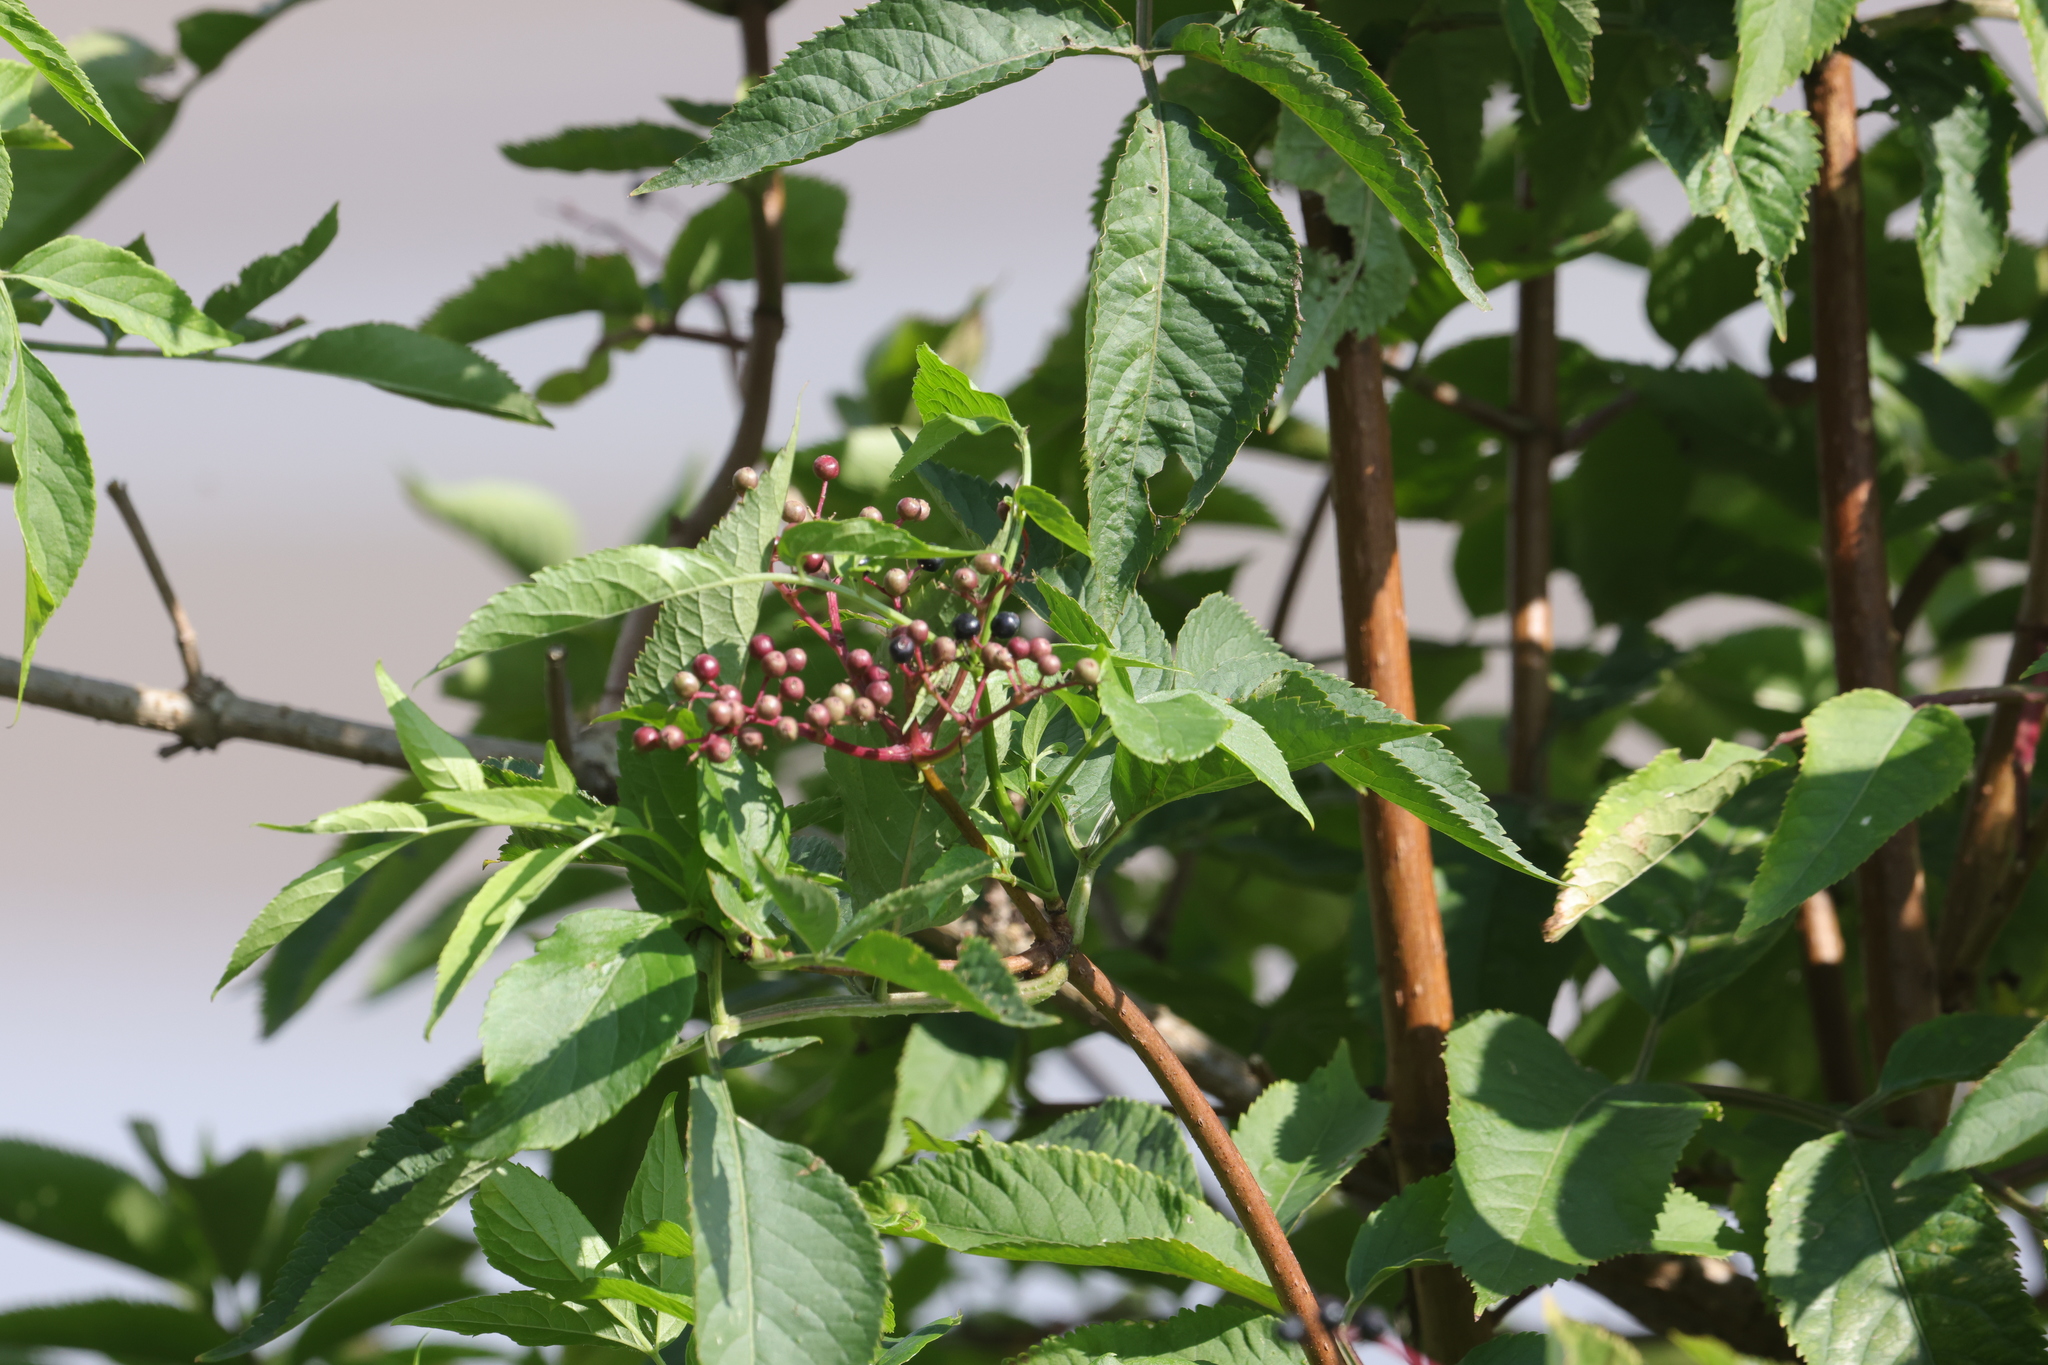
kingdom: Plantae
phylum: Tracheophyta
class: Magnoliopsida
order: Dipsacales
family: Viburnaceae
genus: Sambucus
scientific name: Sambucus nigra
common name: Elder
